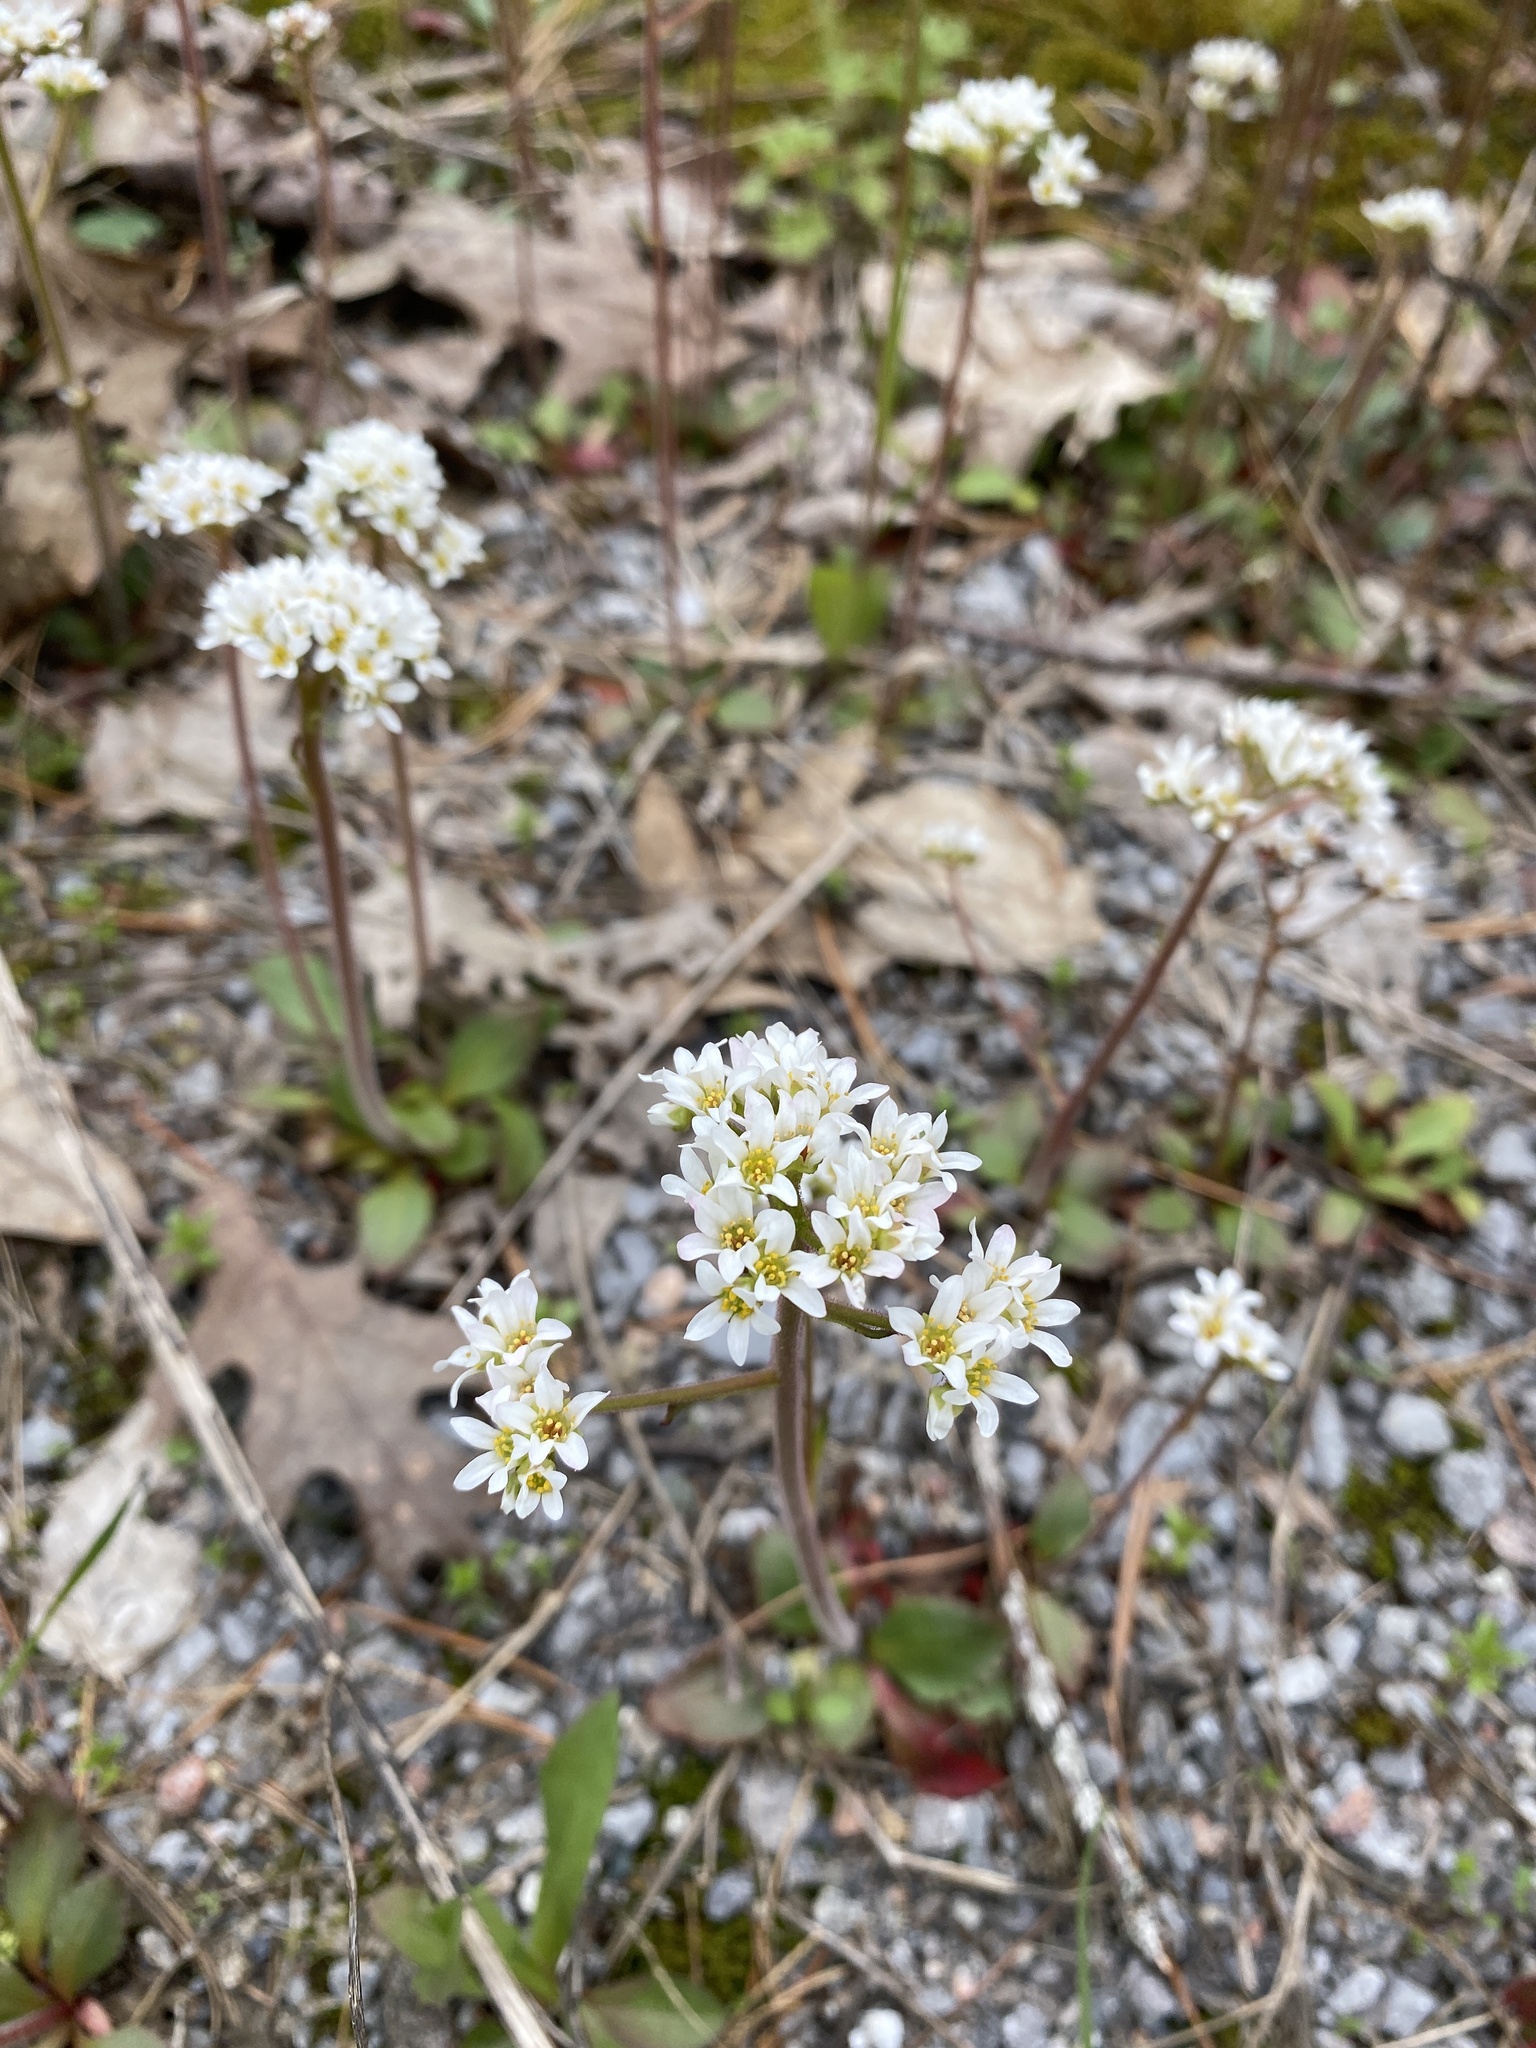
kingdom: Plantae
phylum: Tracheophyta
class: Magnoliopsida
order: Saxifragales
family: Saxifragaceae
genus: Micranthes
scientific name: Micranthes virginiensis
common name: Early saxifrage
